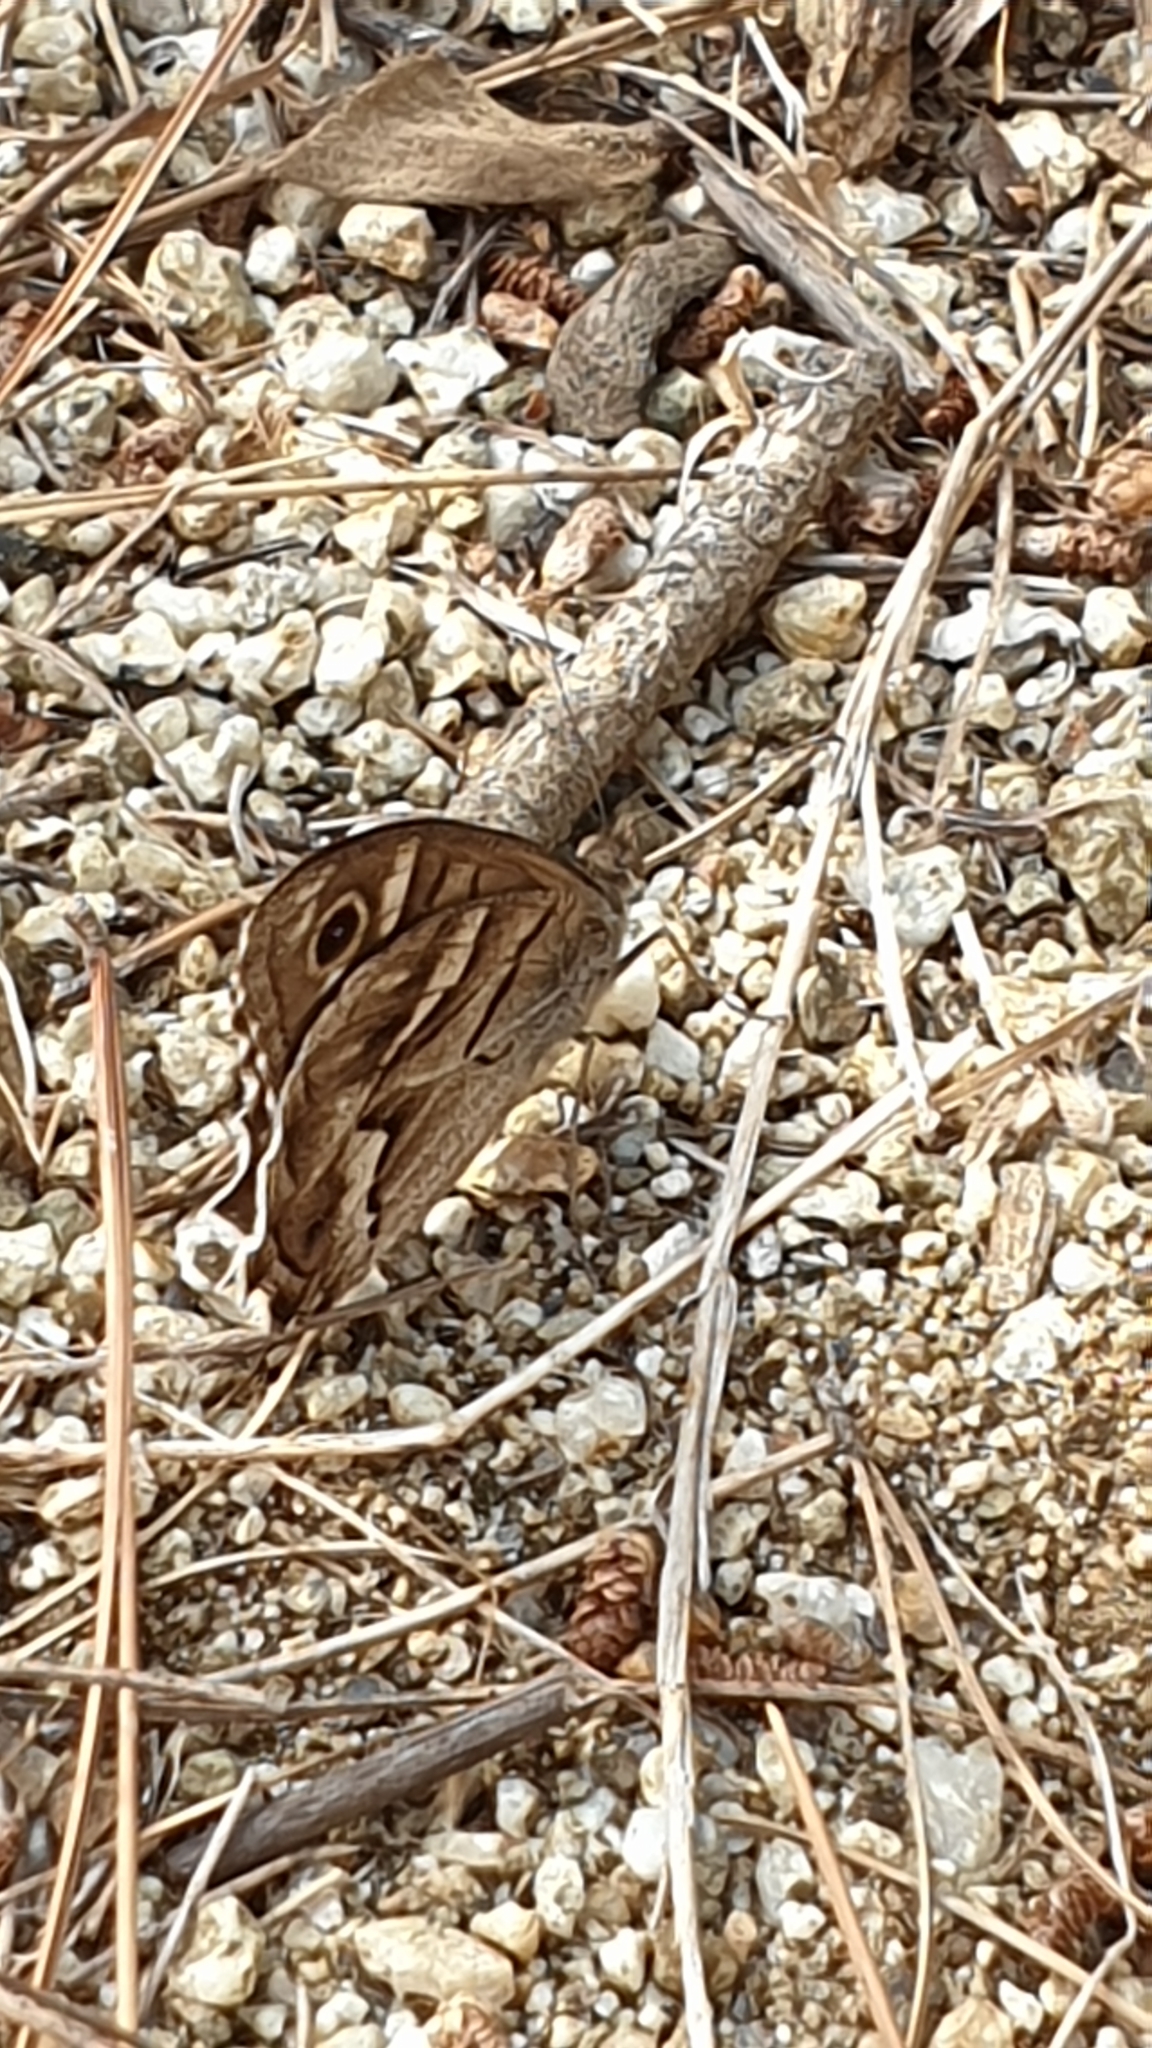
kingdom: Animalia
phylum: Arthropoda
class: Insecta
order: Lepidoptera
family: Nymphalidae
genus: Hipparchia
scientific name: Hipparchia fidia
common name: Striped grayling
